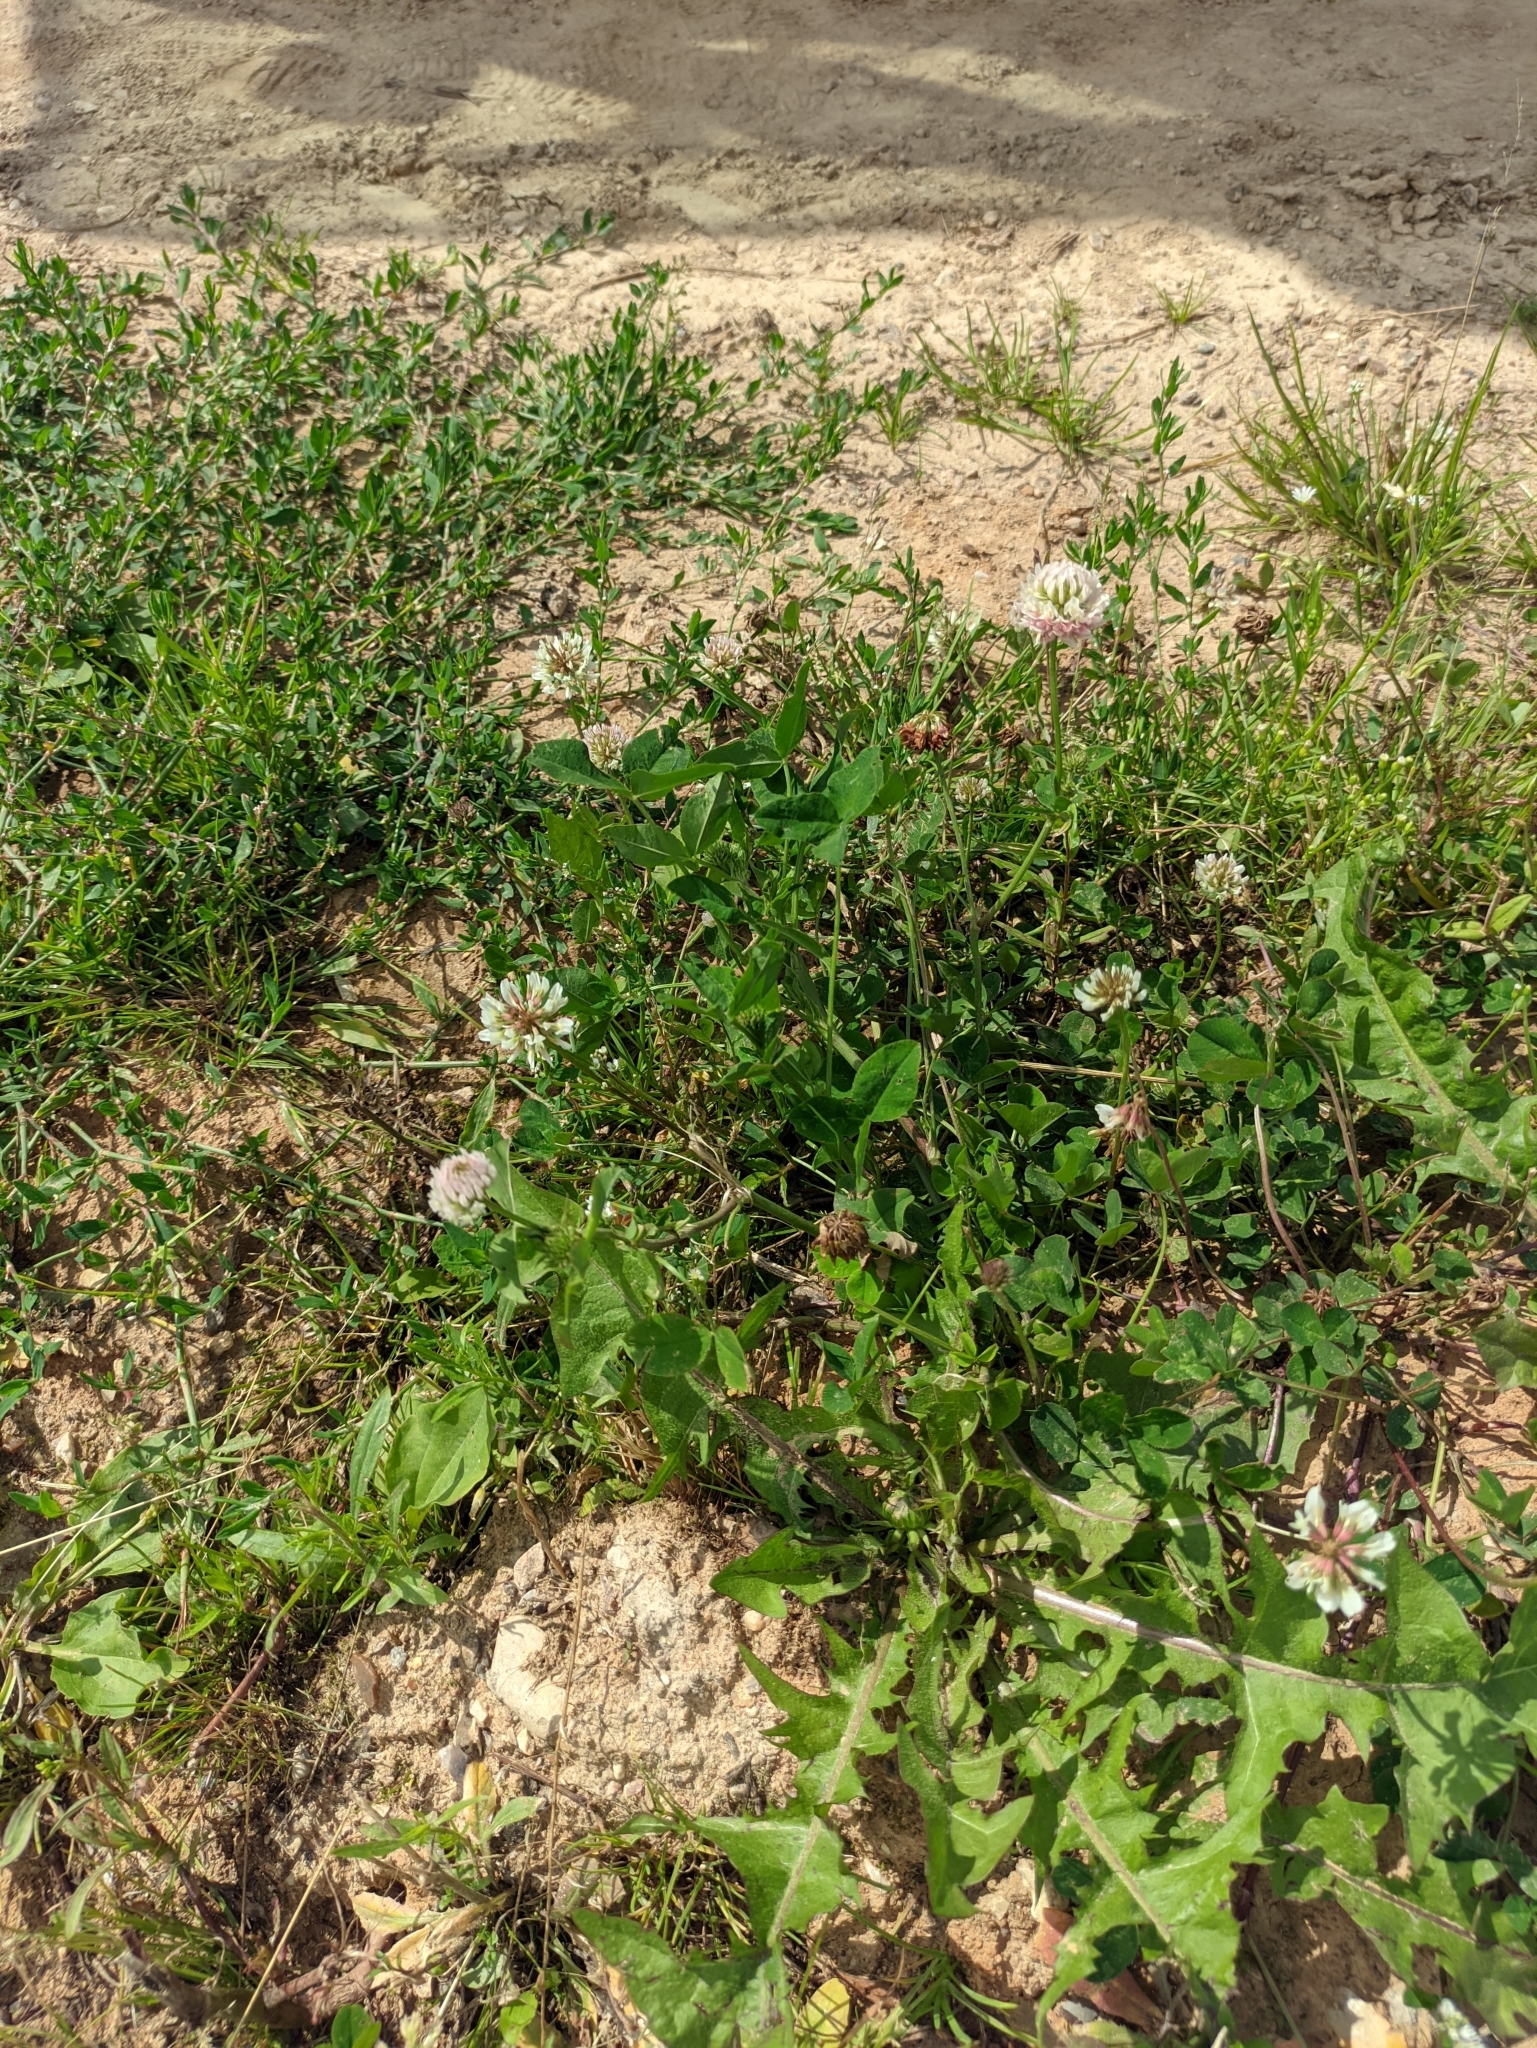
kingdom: Plantae
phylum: Tracheophyta
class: Magnoliopsida
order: Fabales
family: Fabaceae
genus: Trifolium
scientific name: Trifolium hybridum
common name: Alsike clover
